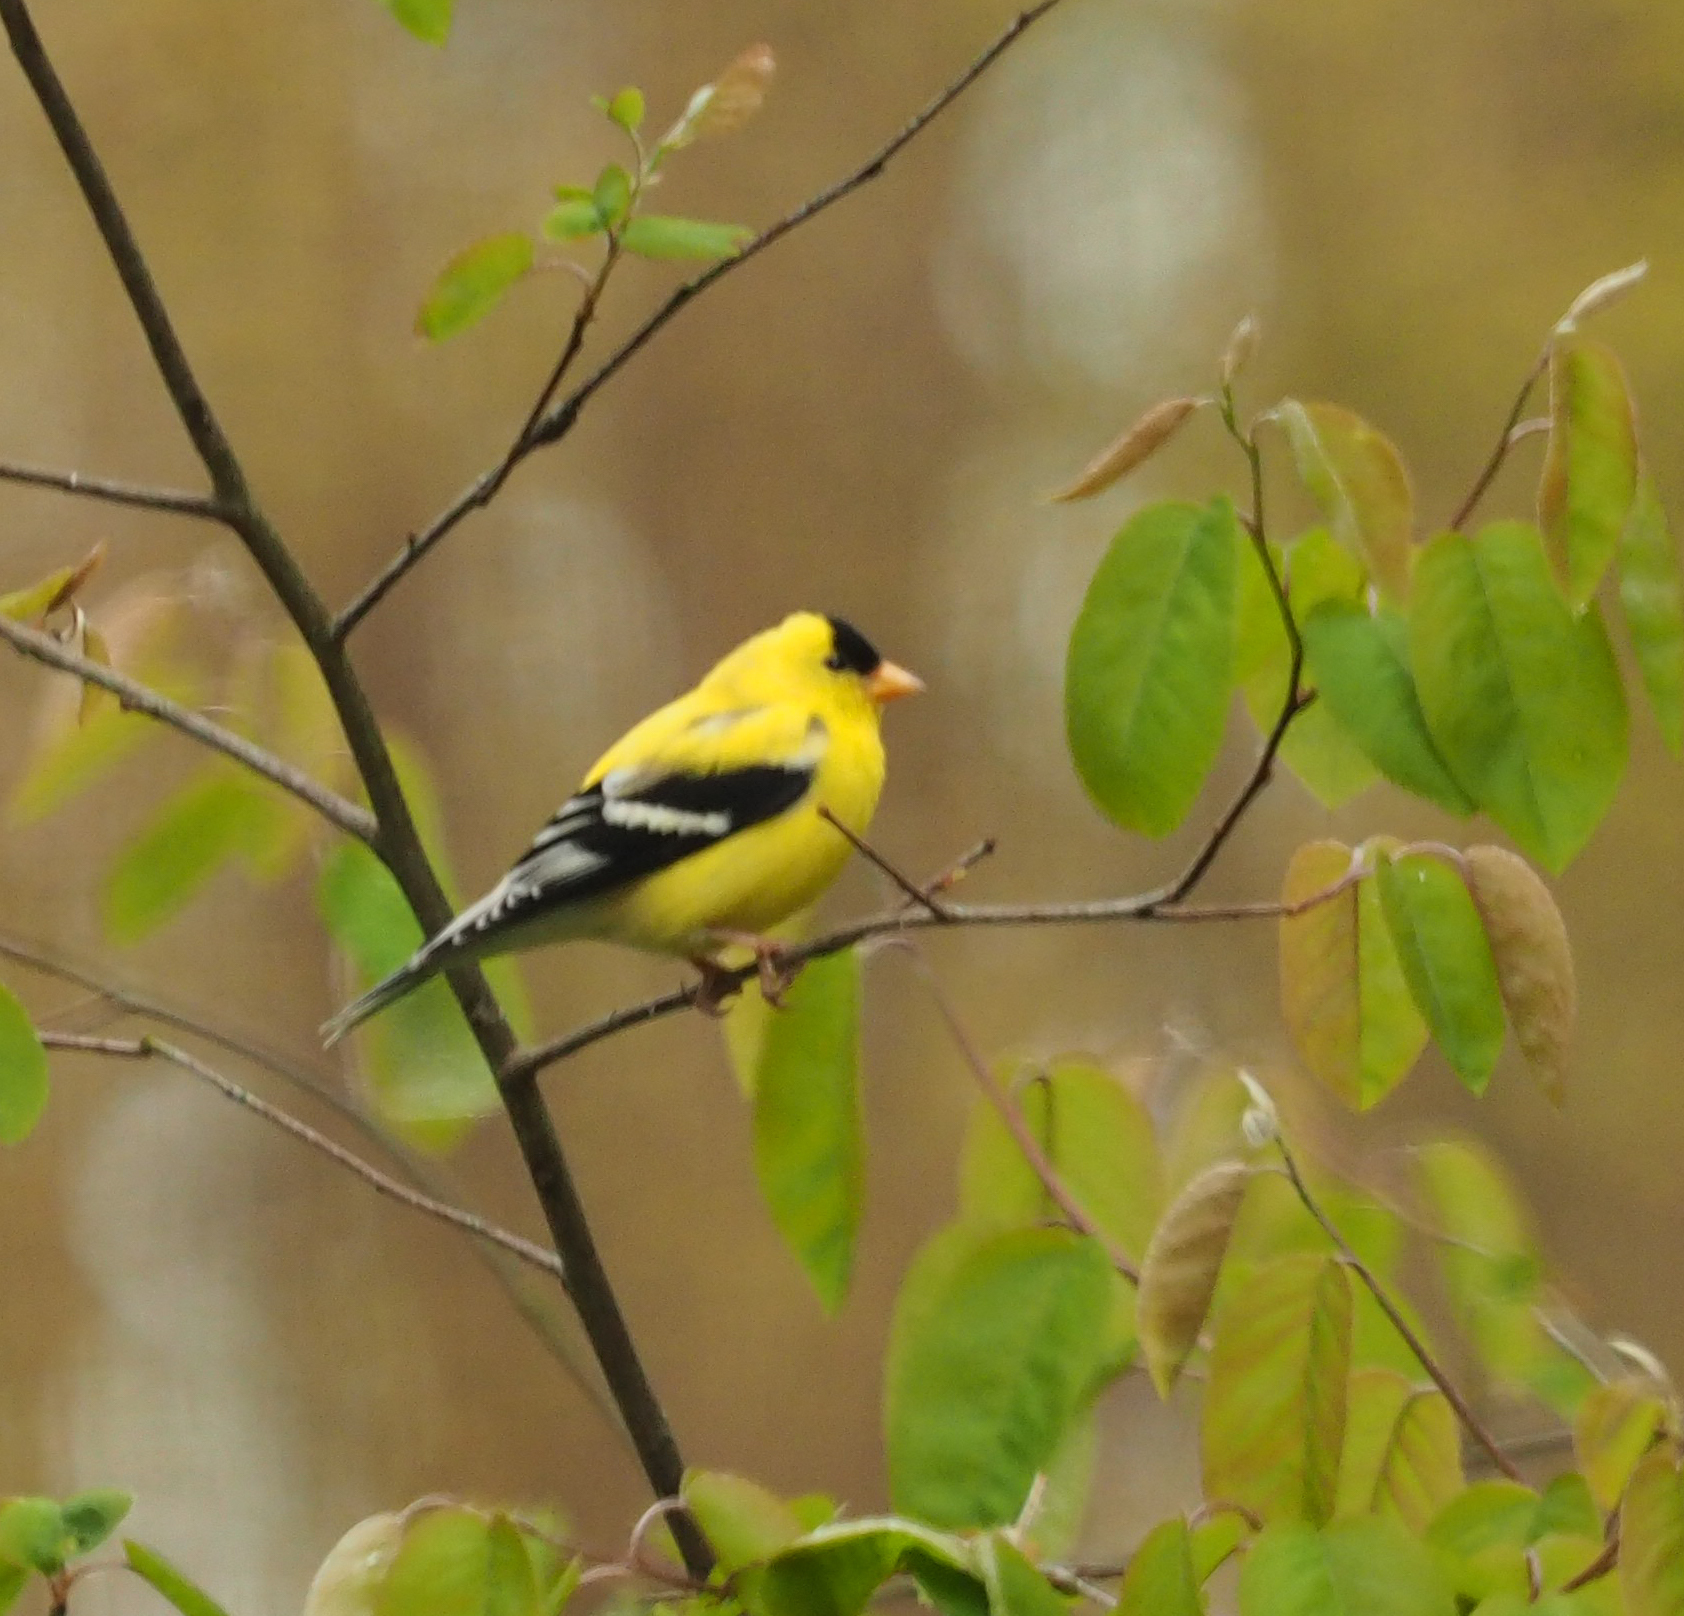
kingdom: Animalia
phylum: Chordata
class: Aves
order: Passeriformes
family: Fringillidae
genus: Spinus
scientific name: Spinus tristis
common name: American goldfinch
